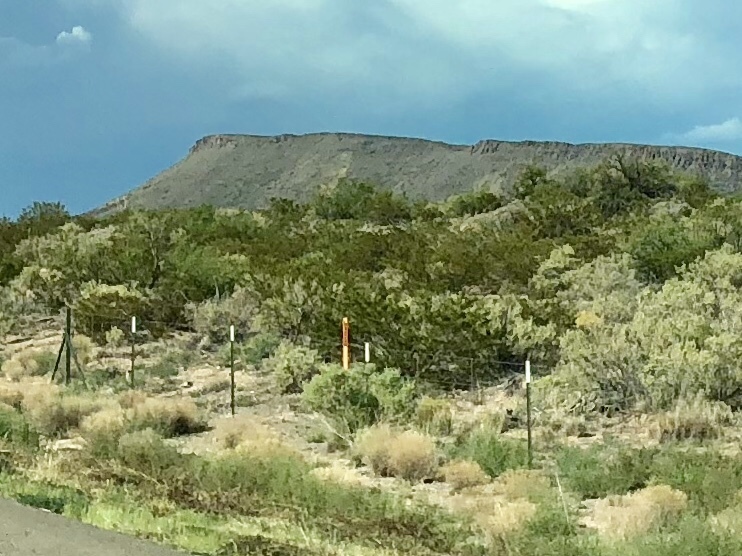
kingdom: Plantae
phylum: Tracheophyta
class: Magnoliopsida
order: Zygophyllales
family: Zygophyllaceae
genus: Larrea
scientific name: Larrea tridentata
